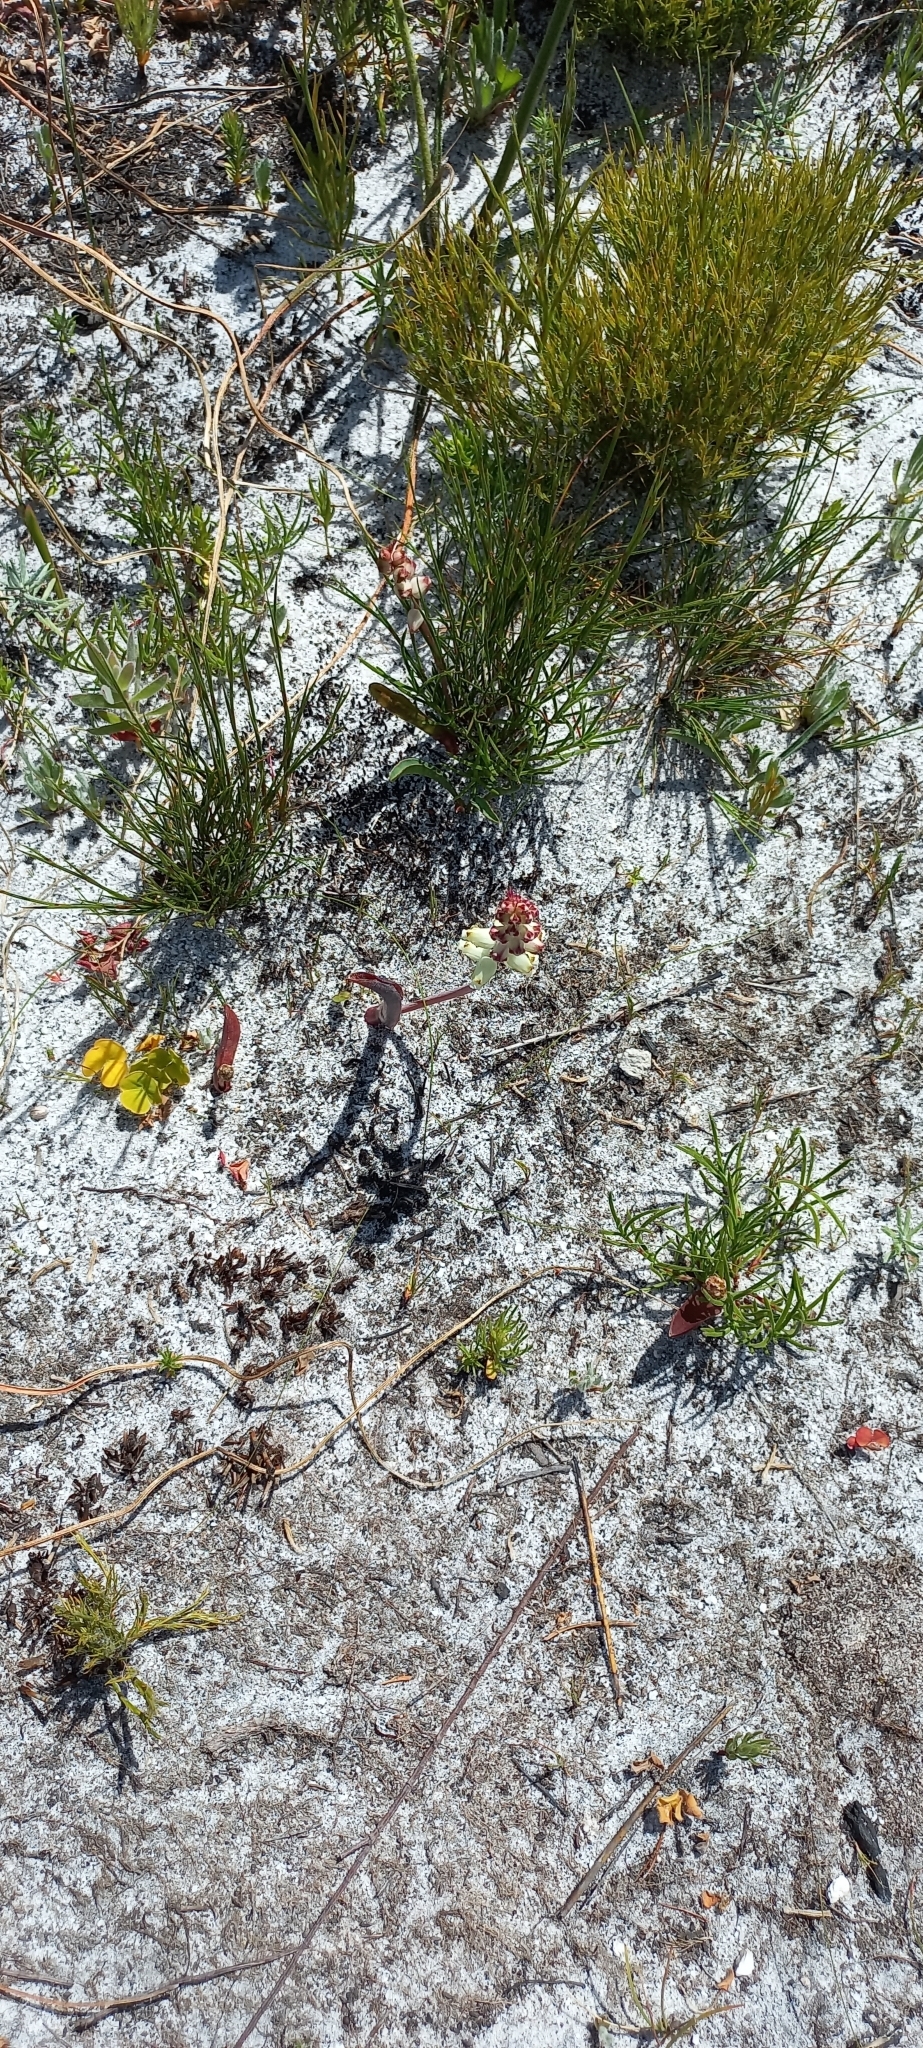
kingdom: Plantae
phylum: Tracheophyta
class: Liliopsida
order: Asparagales
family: Asparagaceae
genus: Lachenalia
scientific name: Lachenalia peersii
